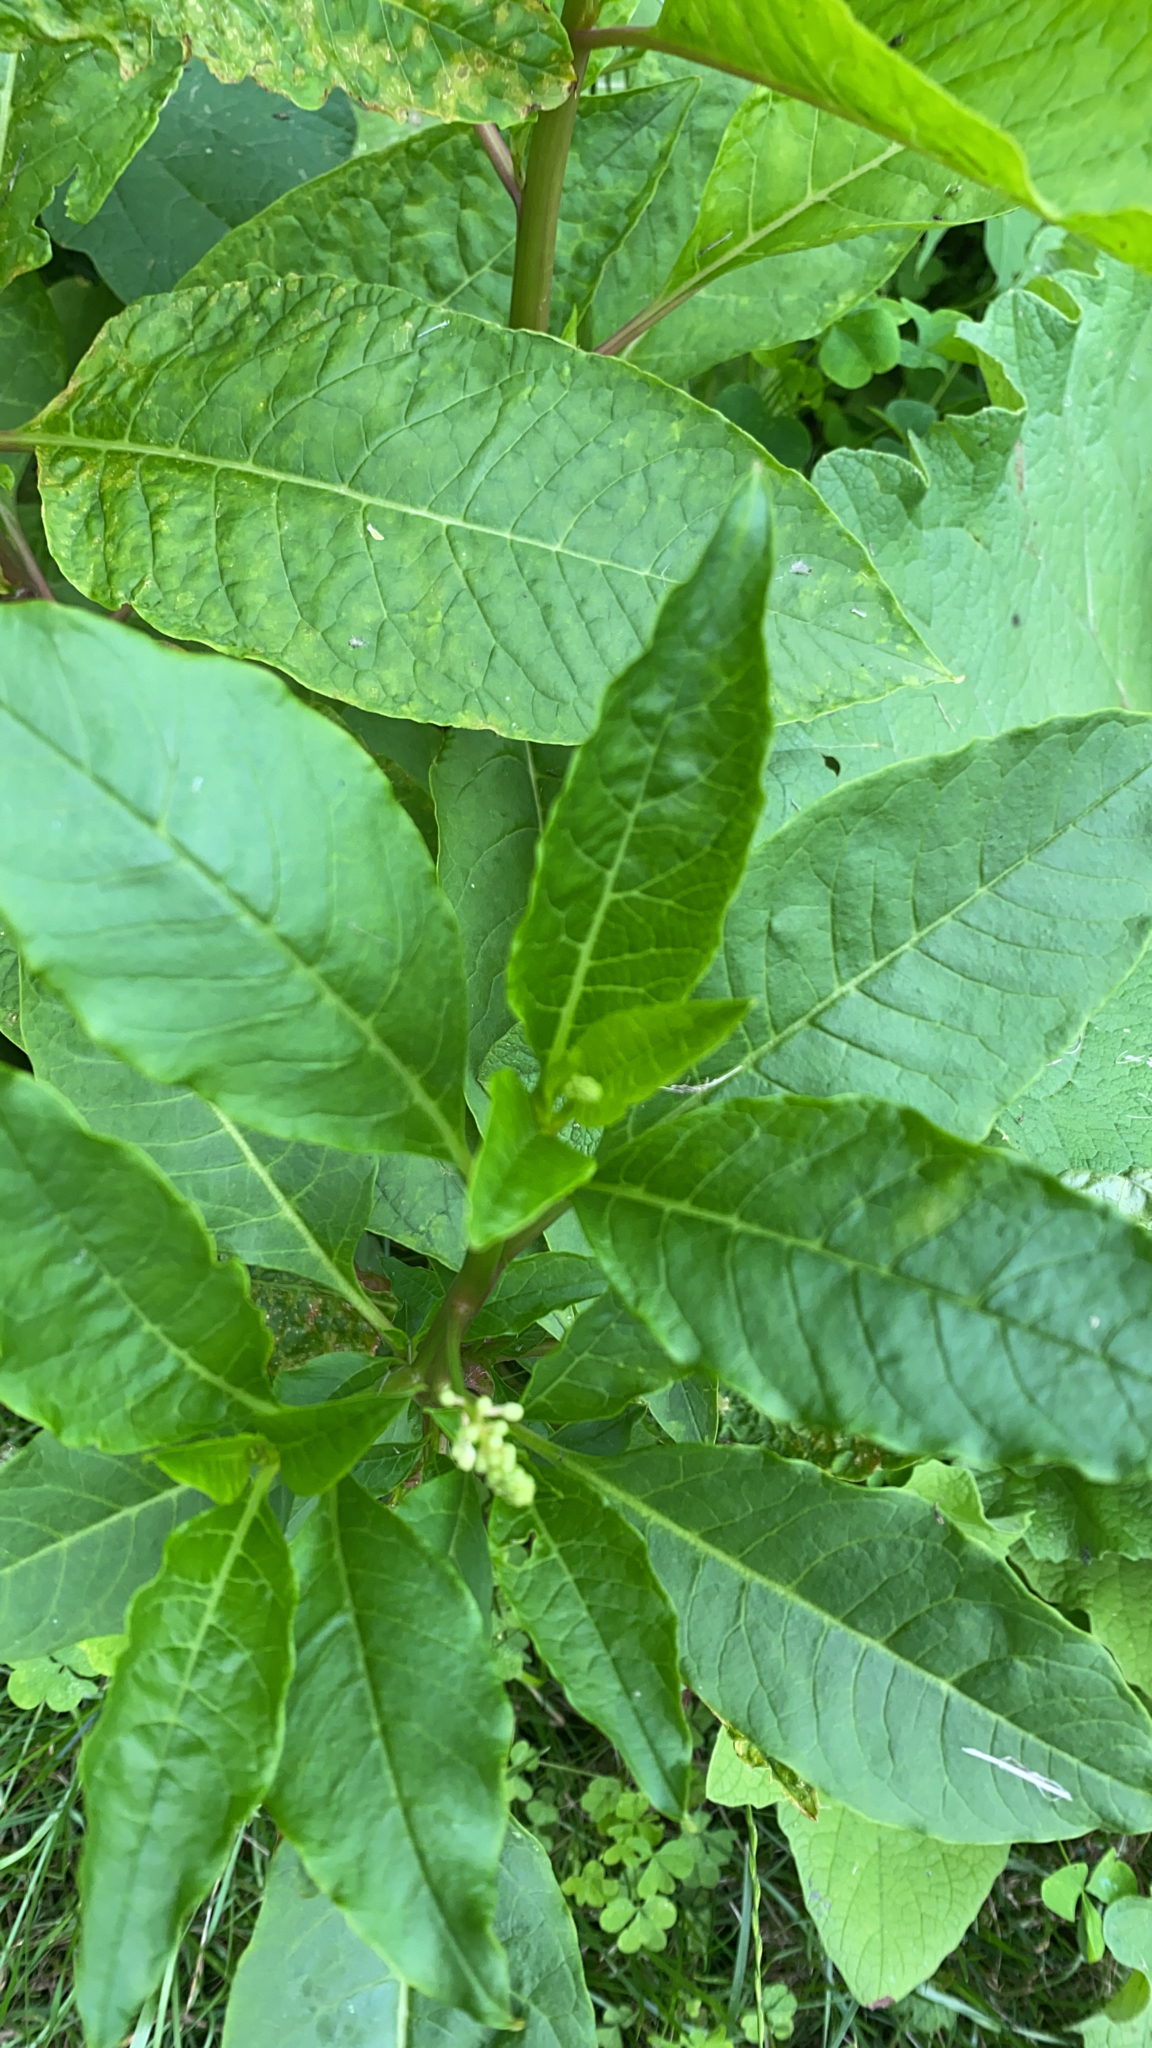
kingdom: Plantae
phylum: Tracheophyta
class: Magnoliopsida
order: Caryophyllales
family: Phytolaccaceae
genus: Phytolacca
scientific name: Phytolacca americana
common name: American pokeweed
